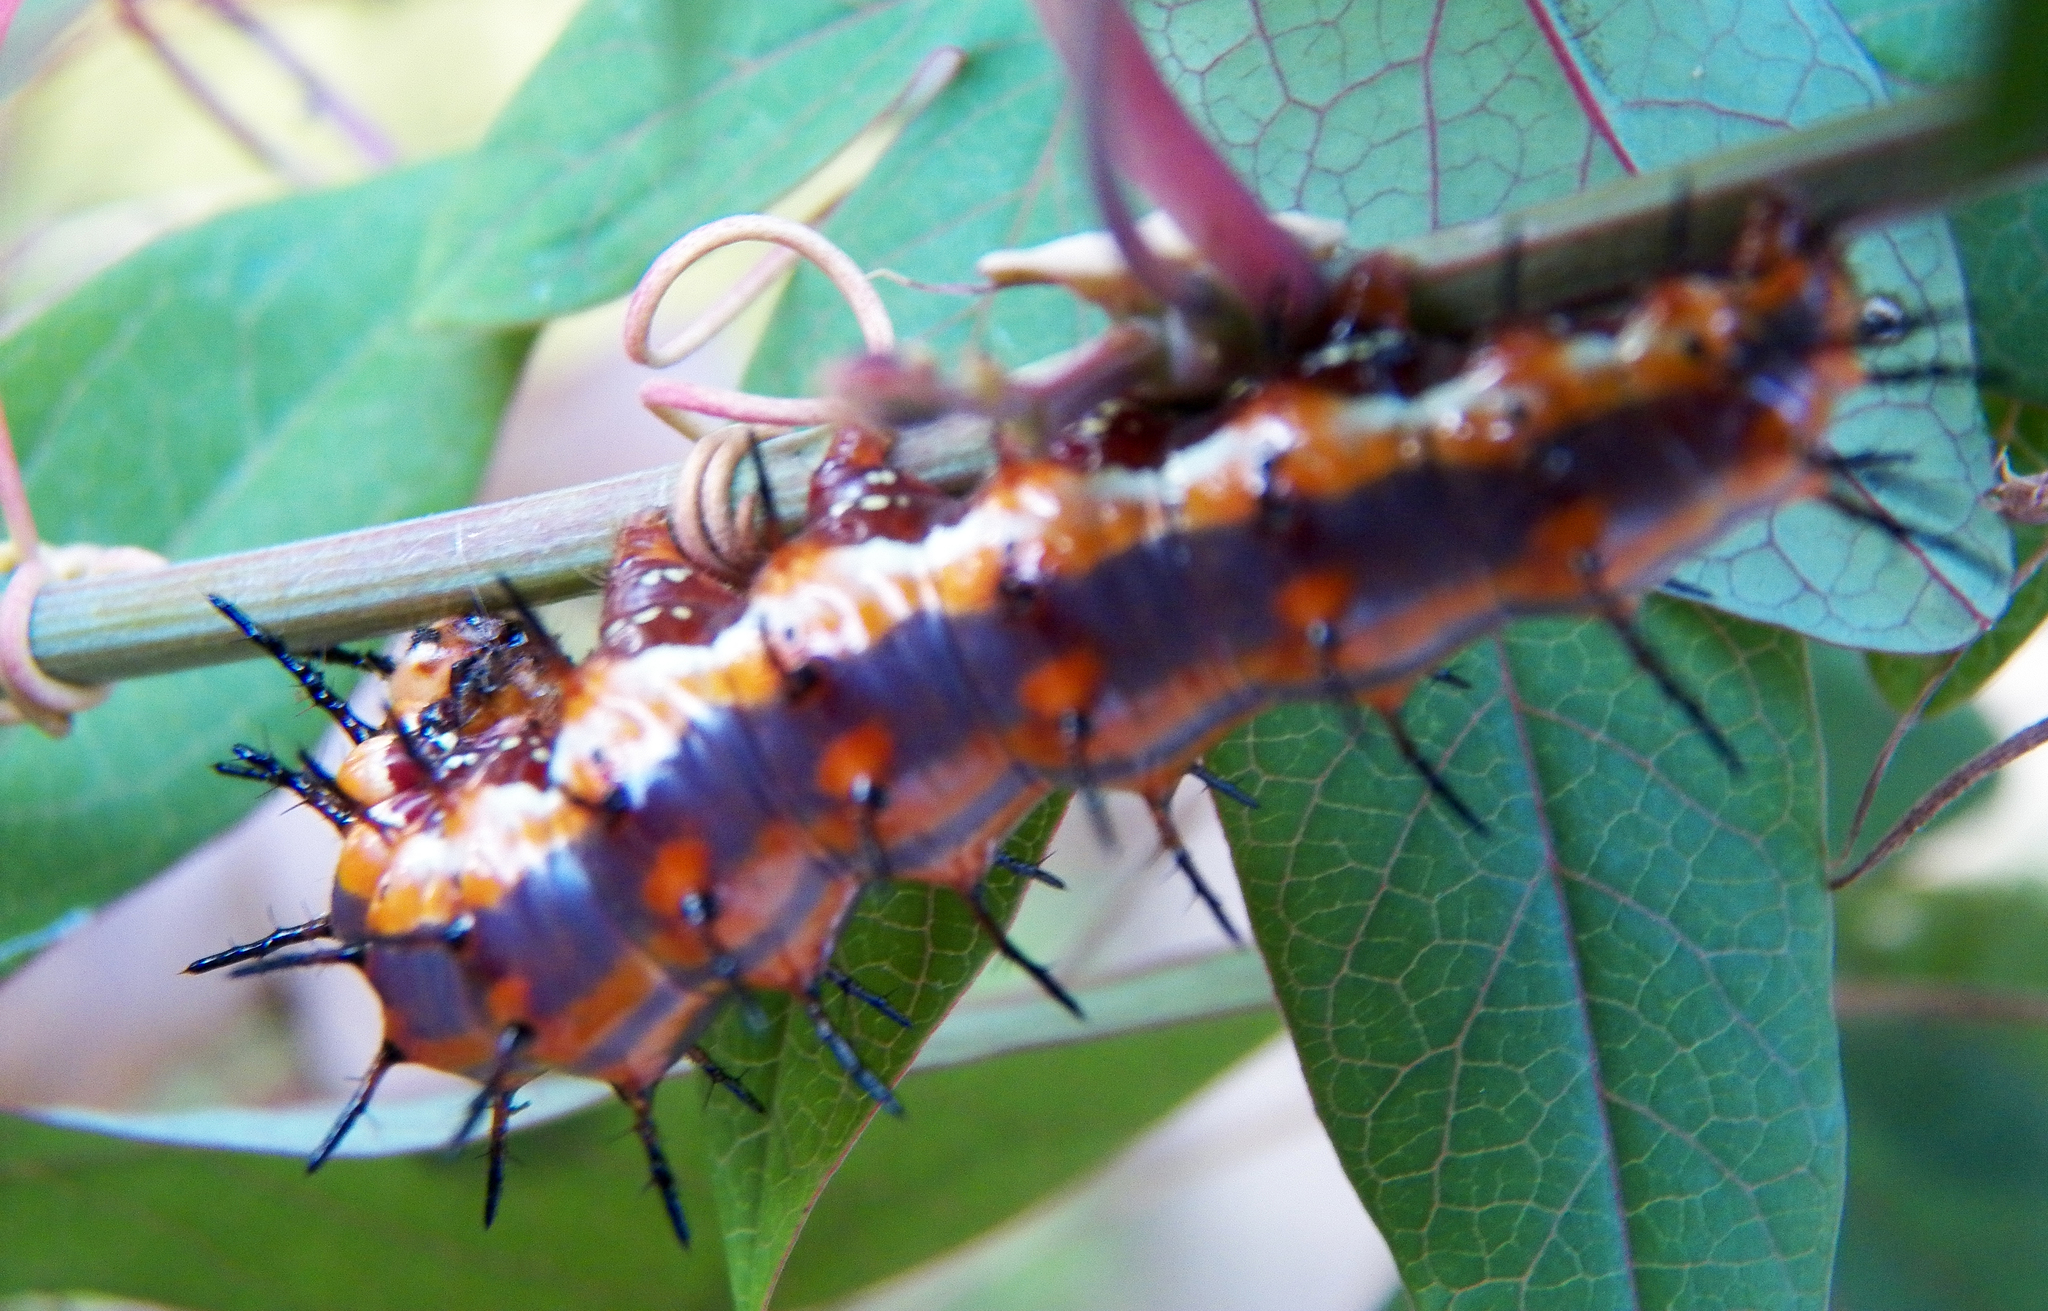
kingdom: Animalia
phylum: Arthropoda
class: Insecta
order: Lepidoptera
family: Nymphalidae
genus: Dione
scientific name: Dione vanillae
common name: Gulf fritillary
